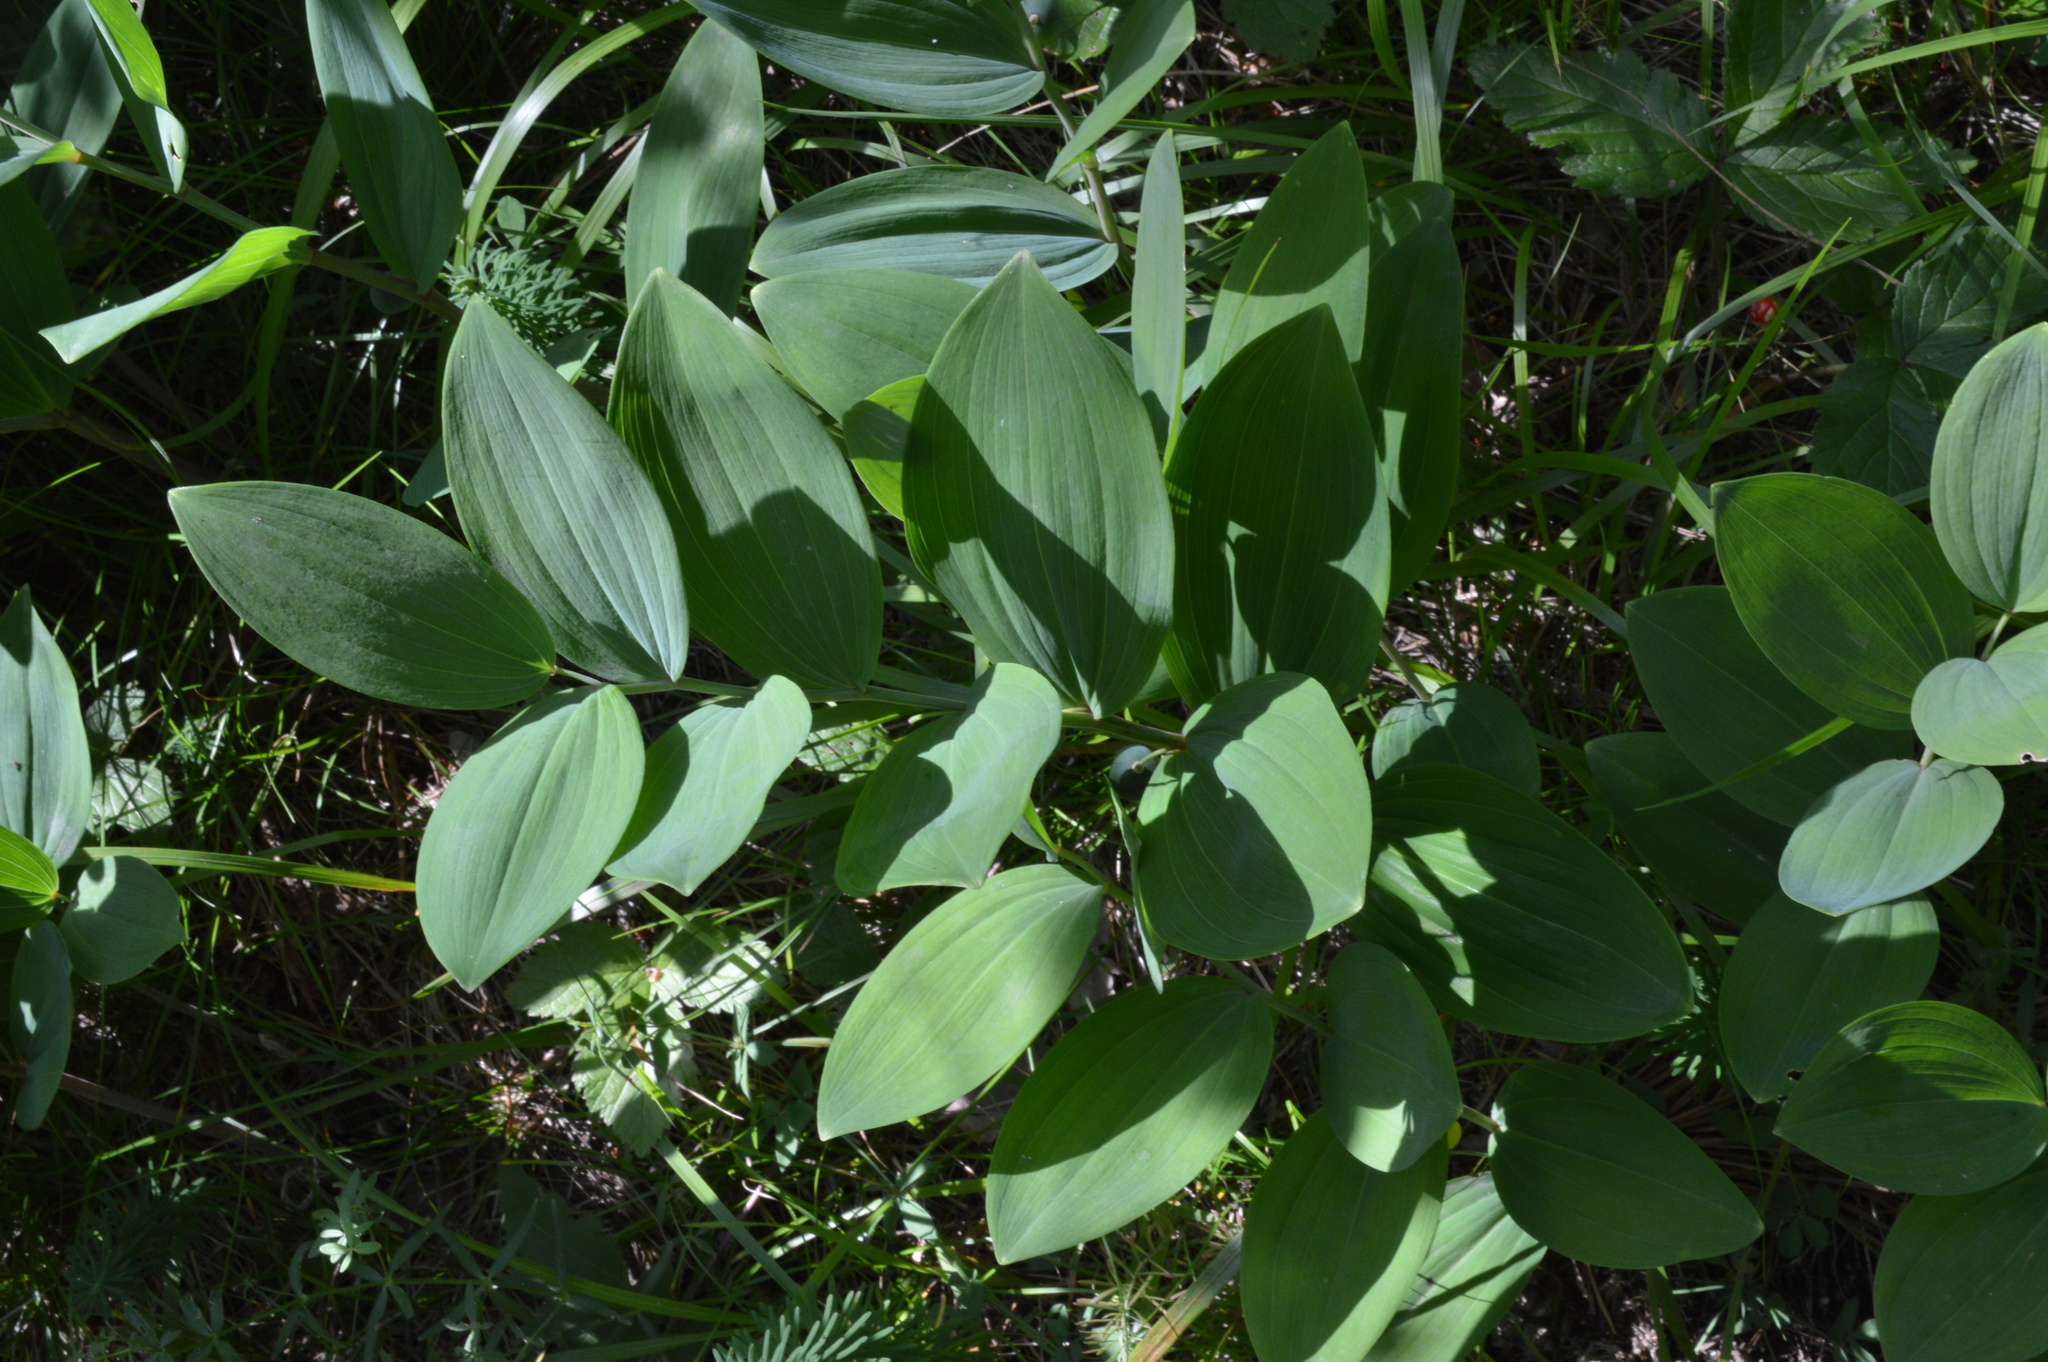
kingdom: Plantae
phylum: Tracheophyta
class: Liliopsida
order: Asparagales
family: Asparagaceae
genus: Polygonatum
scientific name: Polygonatum odoratum
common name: Angular solomon's-seal
